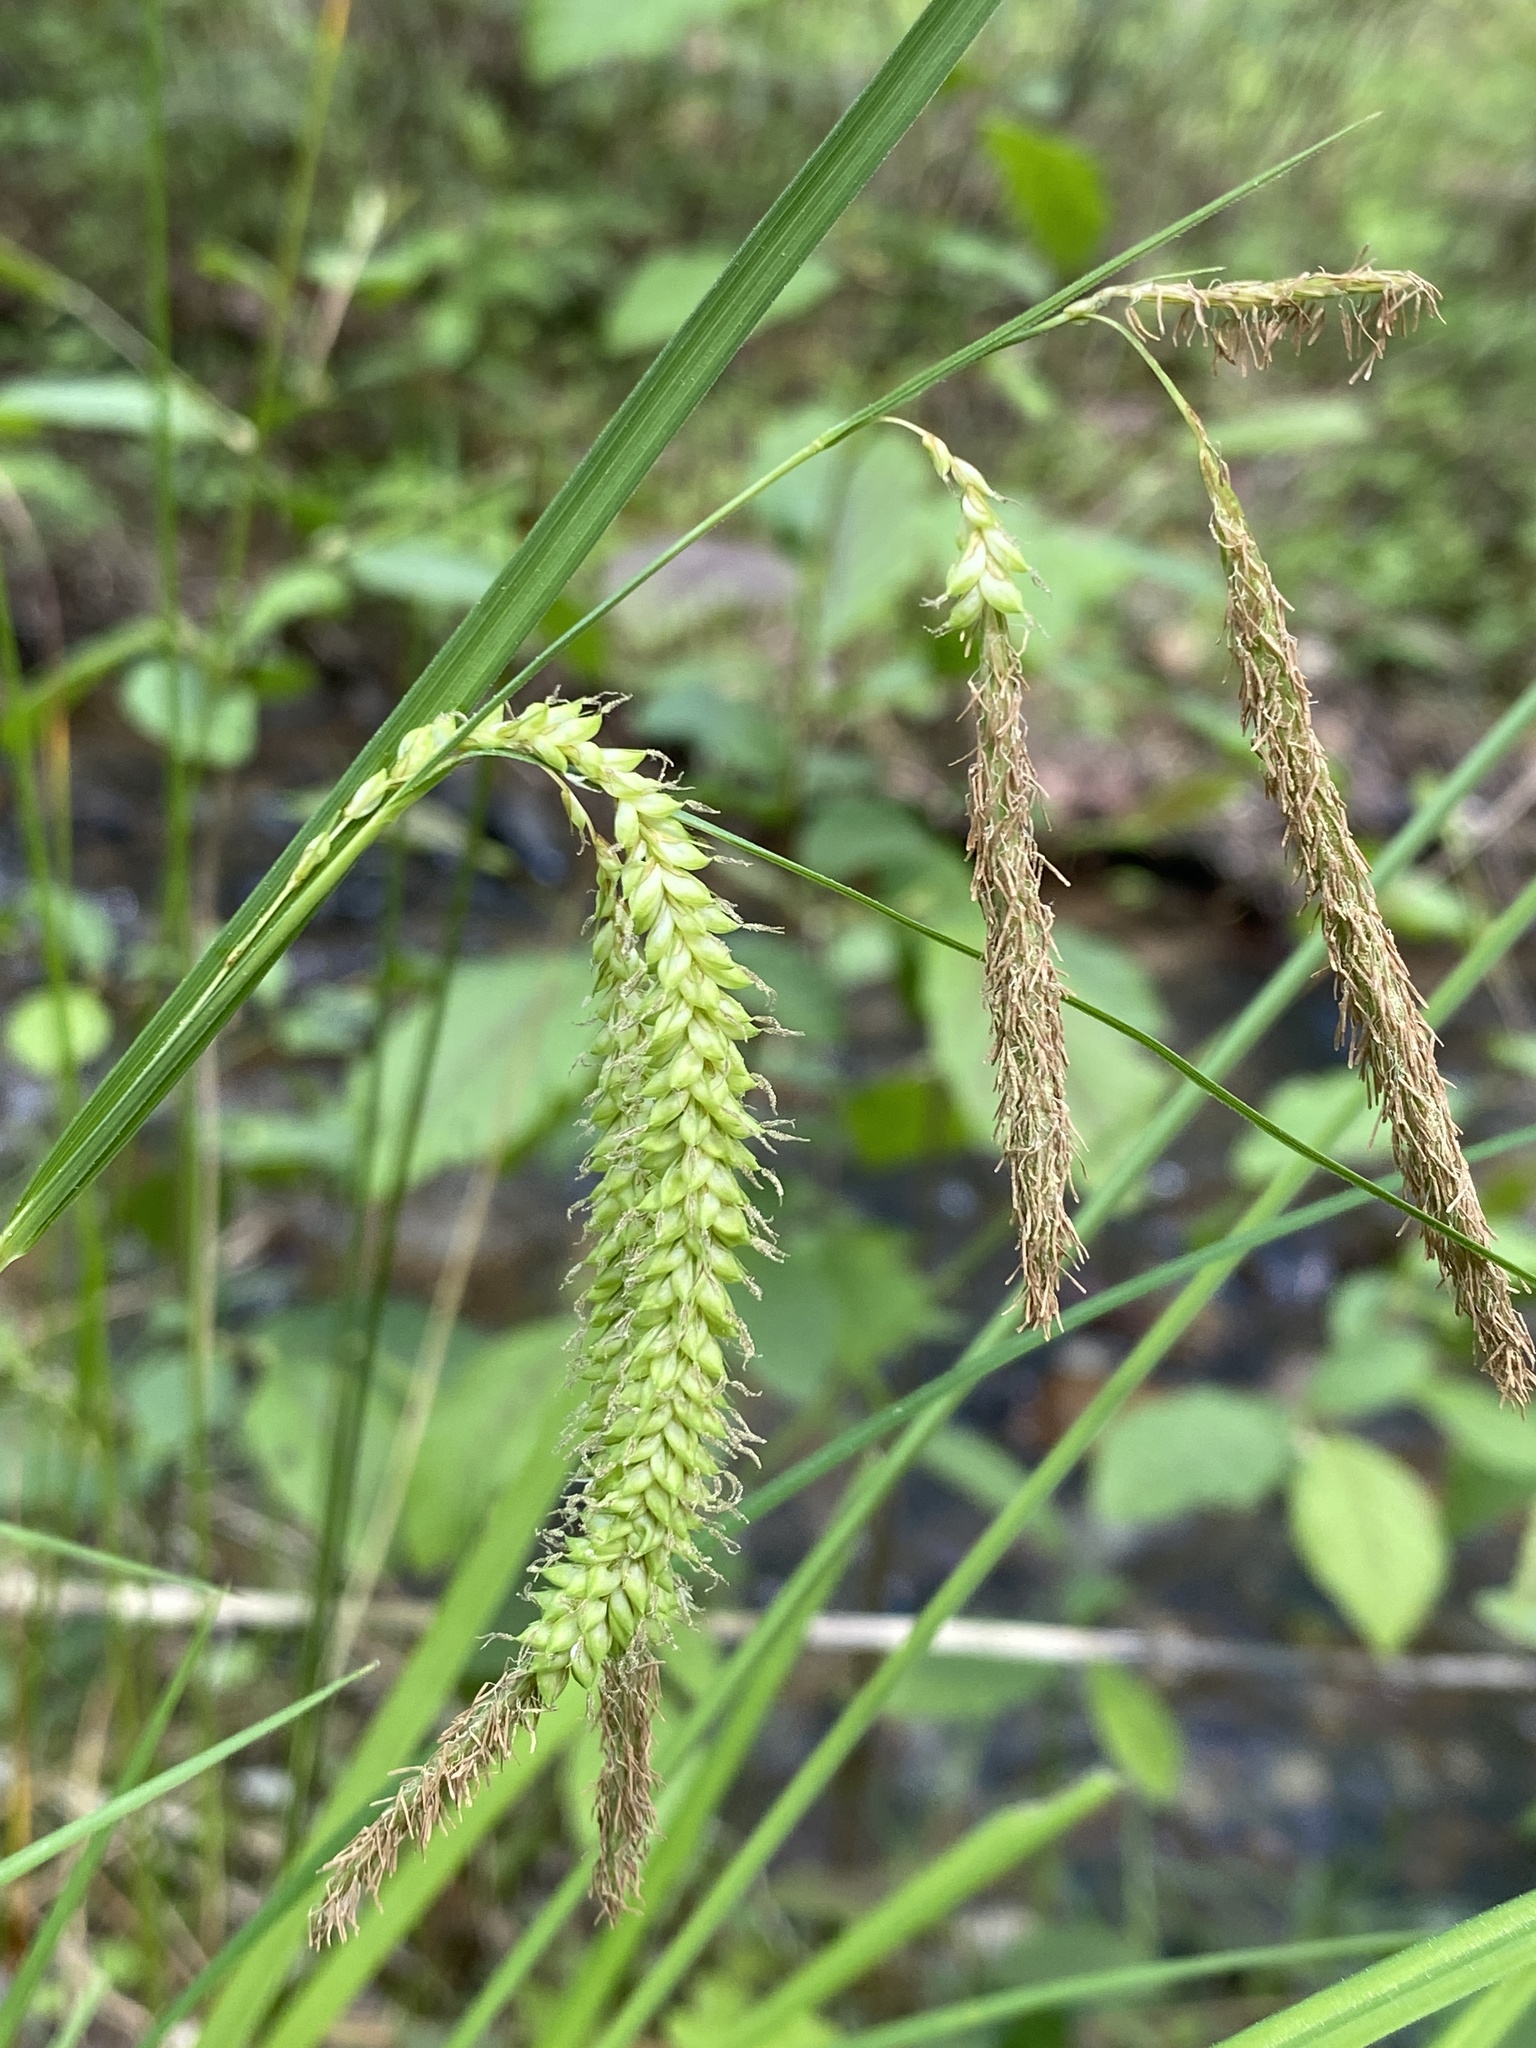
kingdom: Plantae
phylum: Tracheophyta
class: Liliopsida
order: Poales
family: Cyperaceae
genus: Carex
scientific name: Carex gynandra
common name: Nodding sedge
